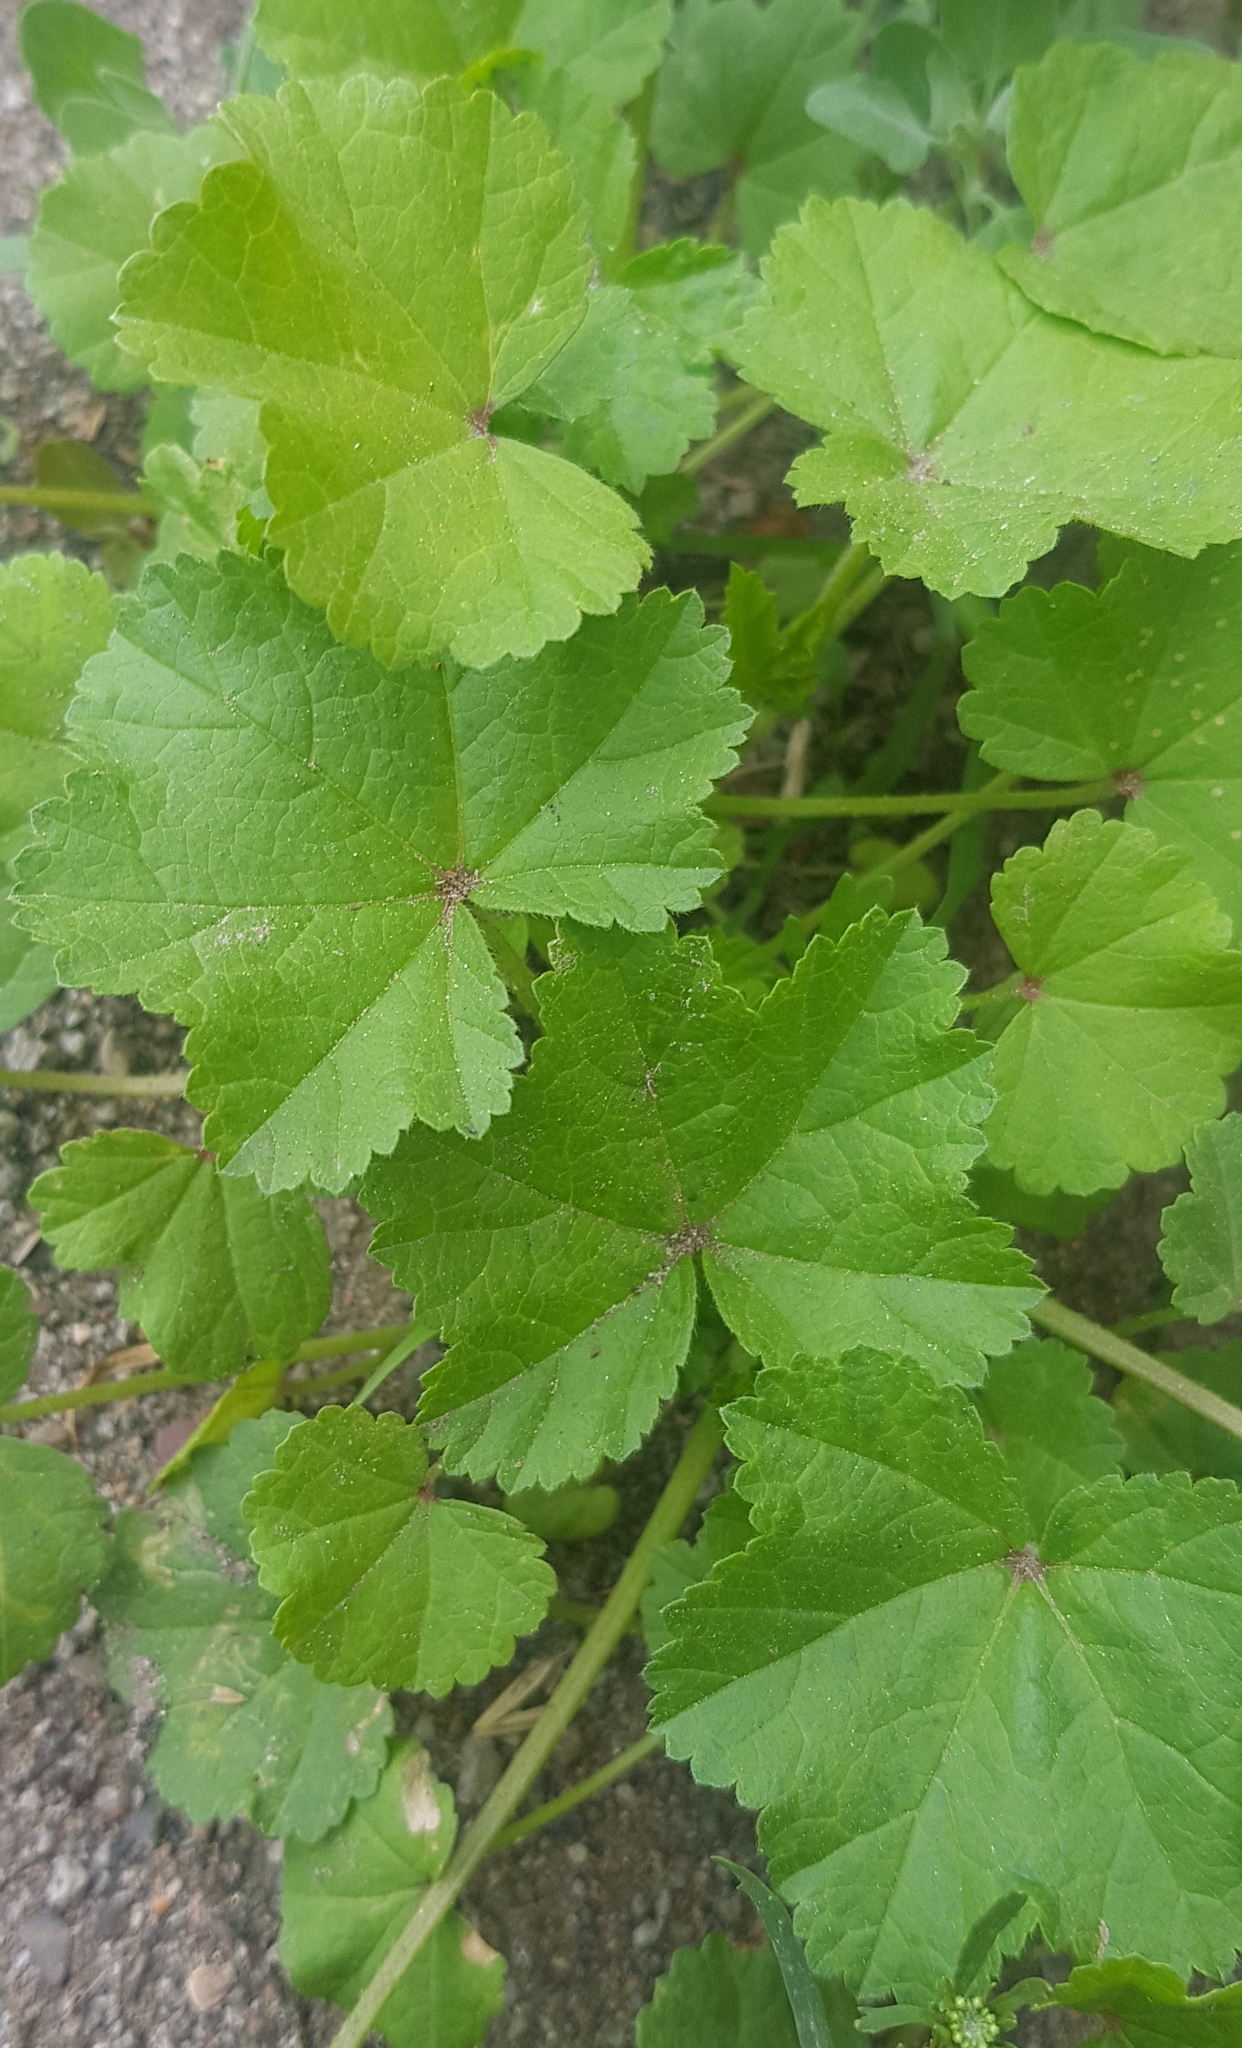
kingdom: Plantae
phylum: Tracheophyta
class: Magnoliopsida
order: Malvales
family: Malvaceae
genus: Malva
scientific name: Malva parviflora
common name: Least mallow
